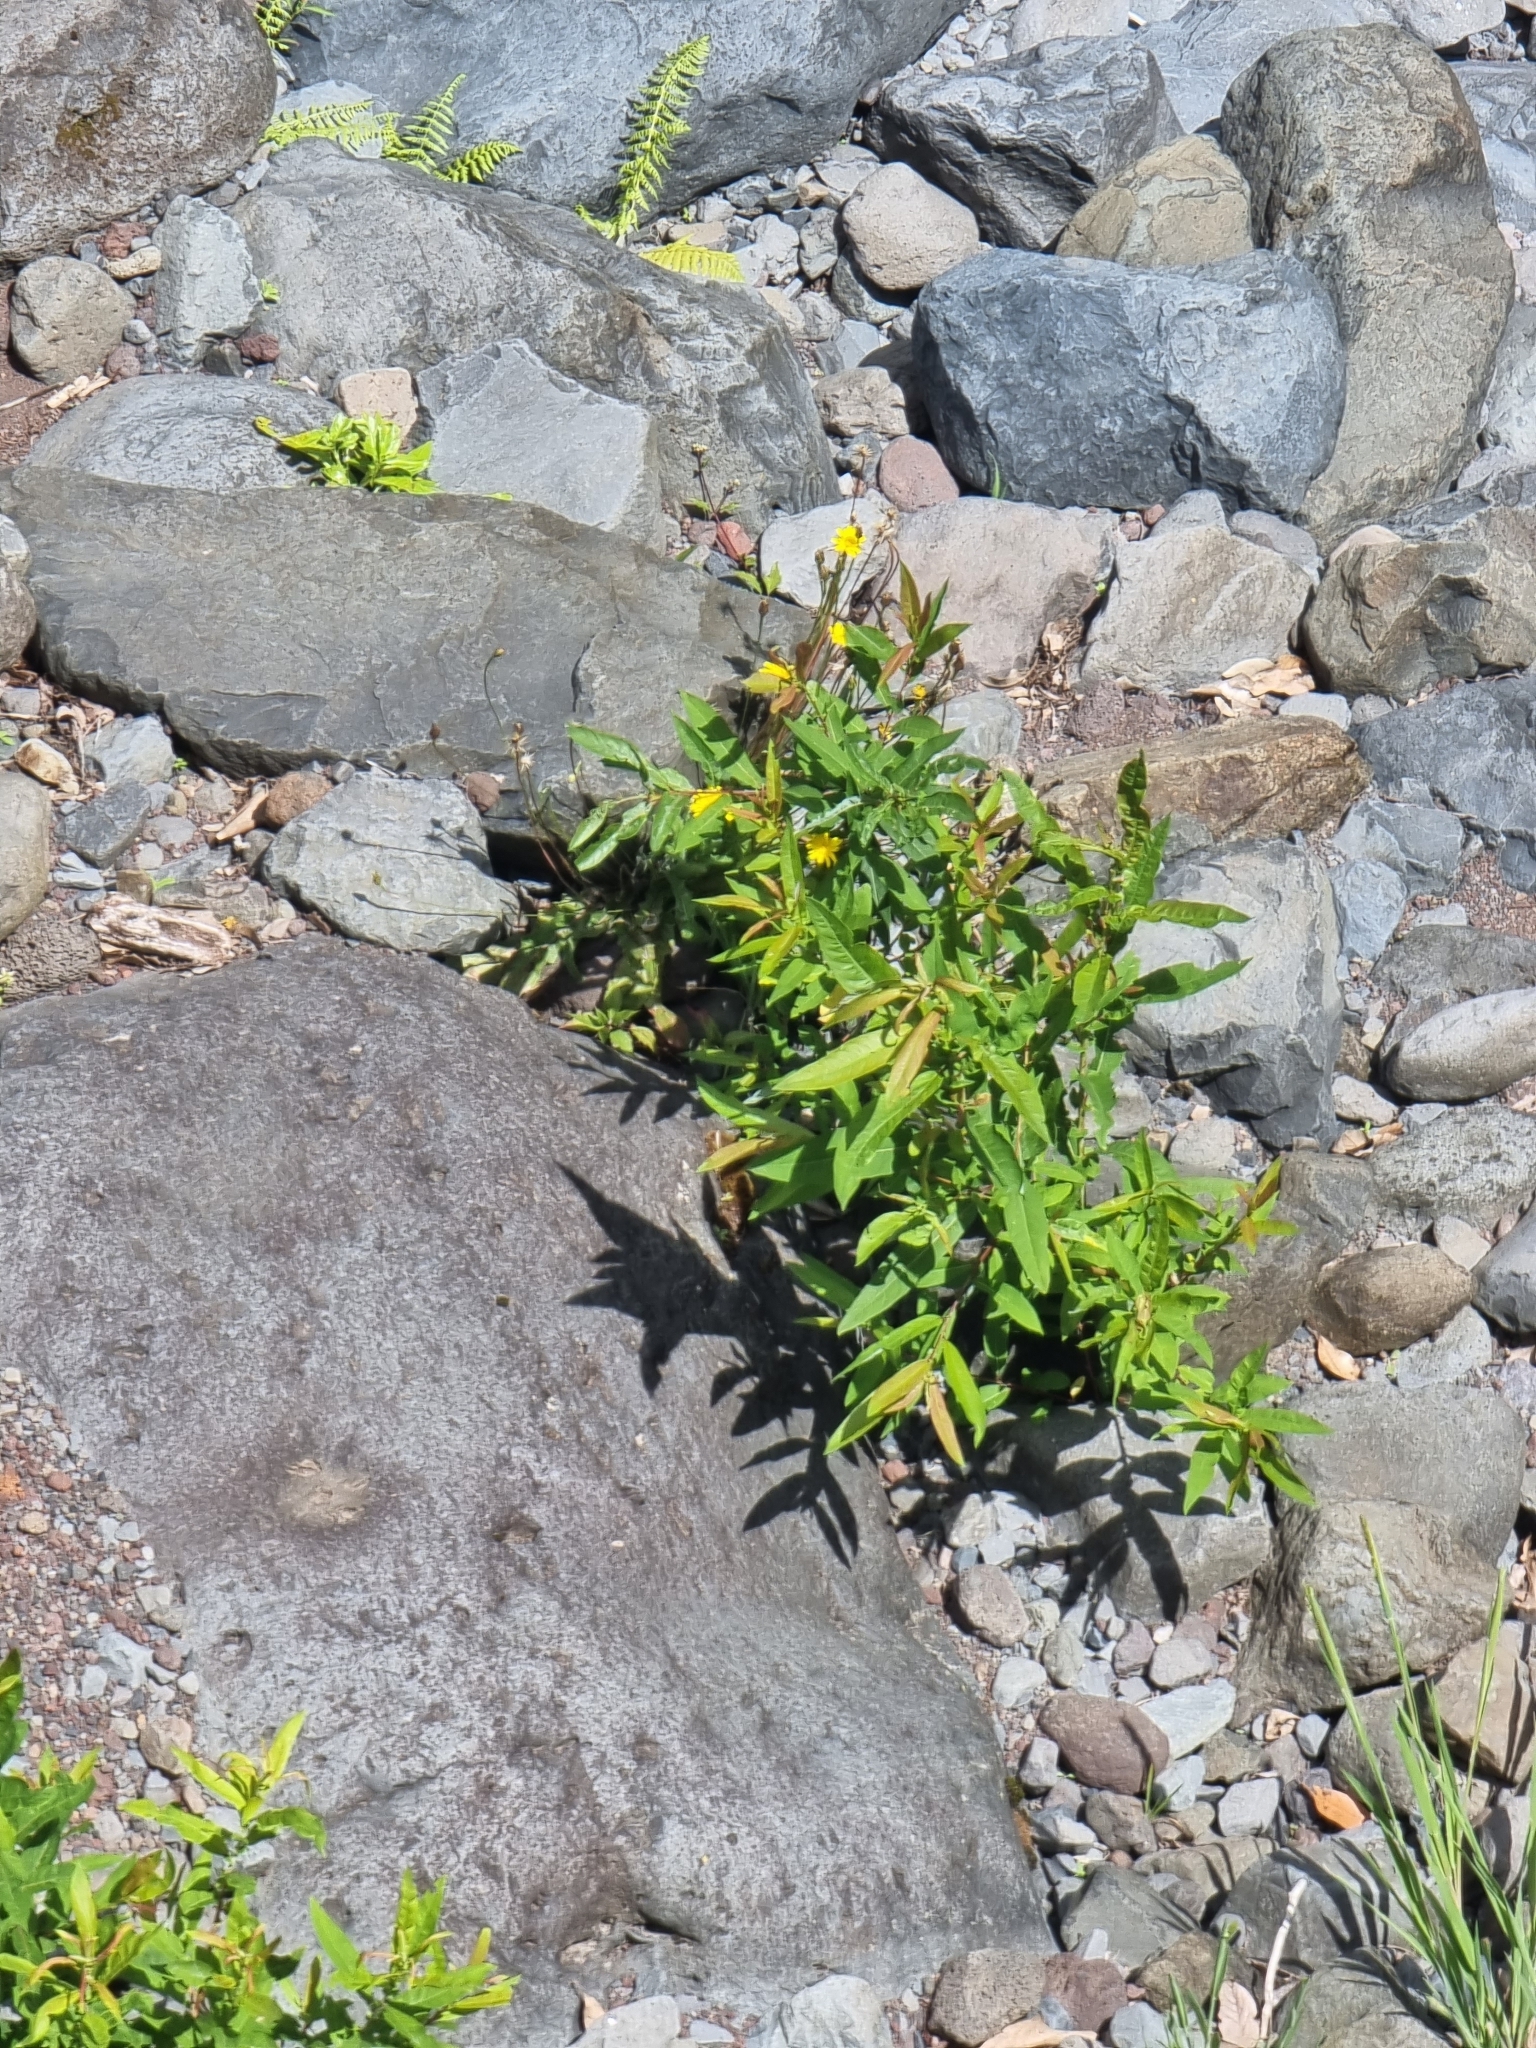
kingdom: Plantae
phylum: Tracheophyta
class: Magnoliopsida
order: Malpighiales
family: Salicaceae
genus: Salix
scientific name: Salix canariensis
